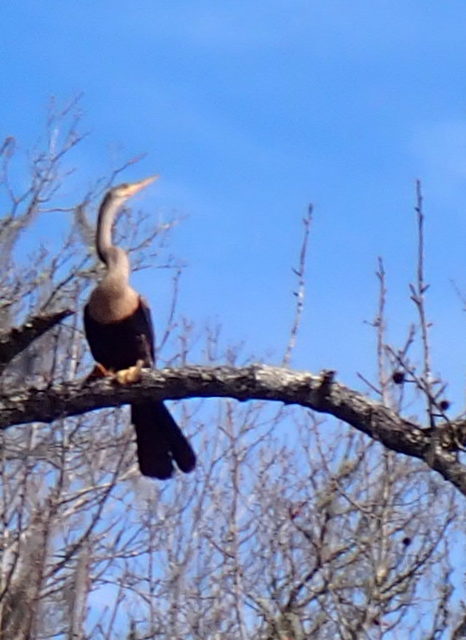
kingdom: Animalia
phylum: Chordata
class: Aves
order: Suliformes
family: Anhingidae
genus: Anhinga
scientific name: Anhinga anhinga
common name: Anhinga
